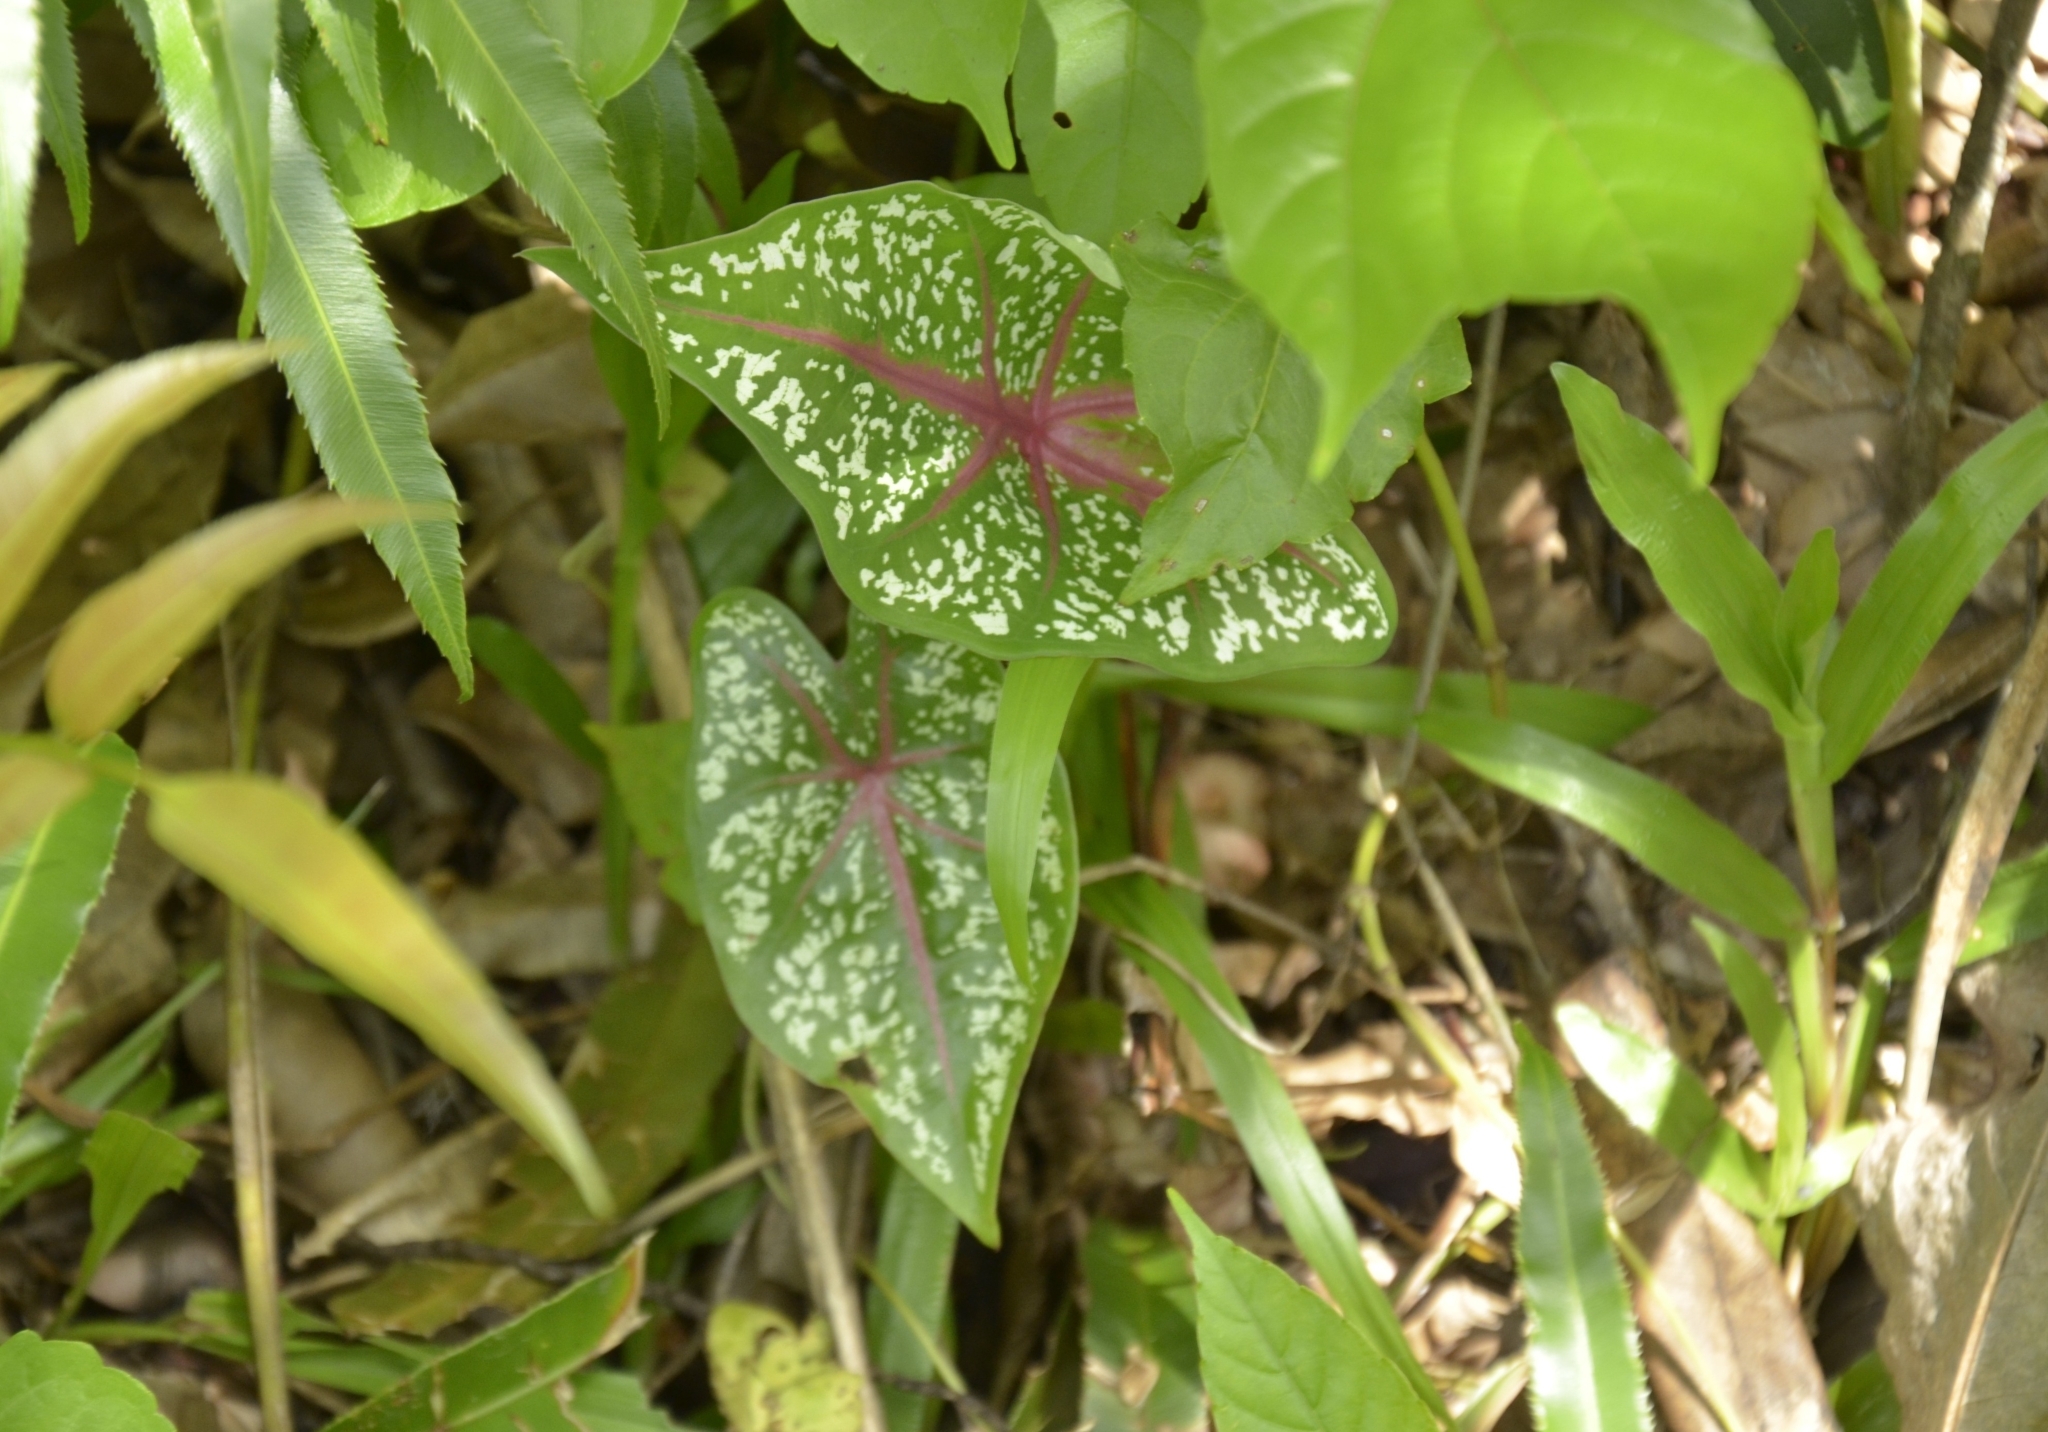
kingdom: Plantae
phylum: Tracheophyta
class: Liliopsida
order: Alismatales
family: Araceae
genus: Caladium
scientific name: Caladium bicolor
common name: Artist's pallet
